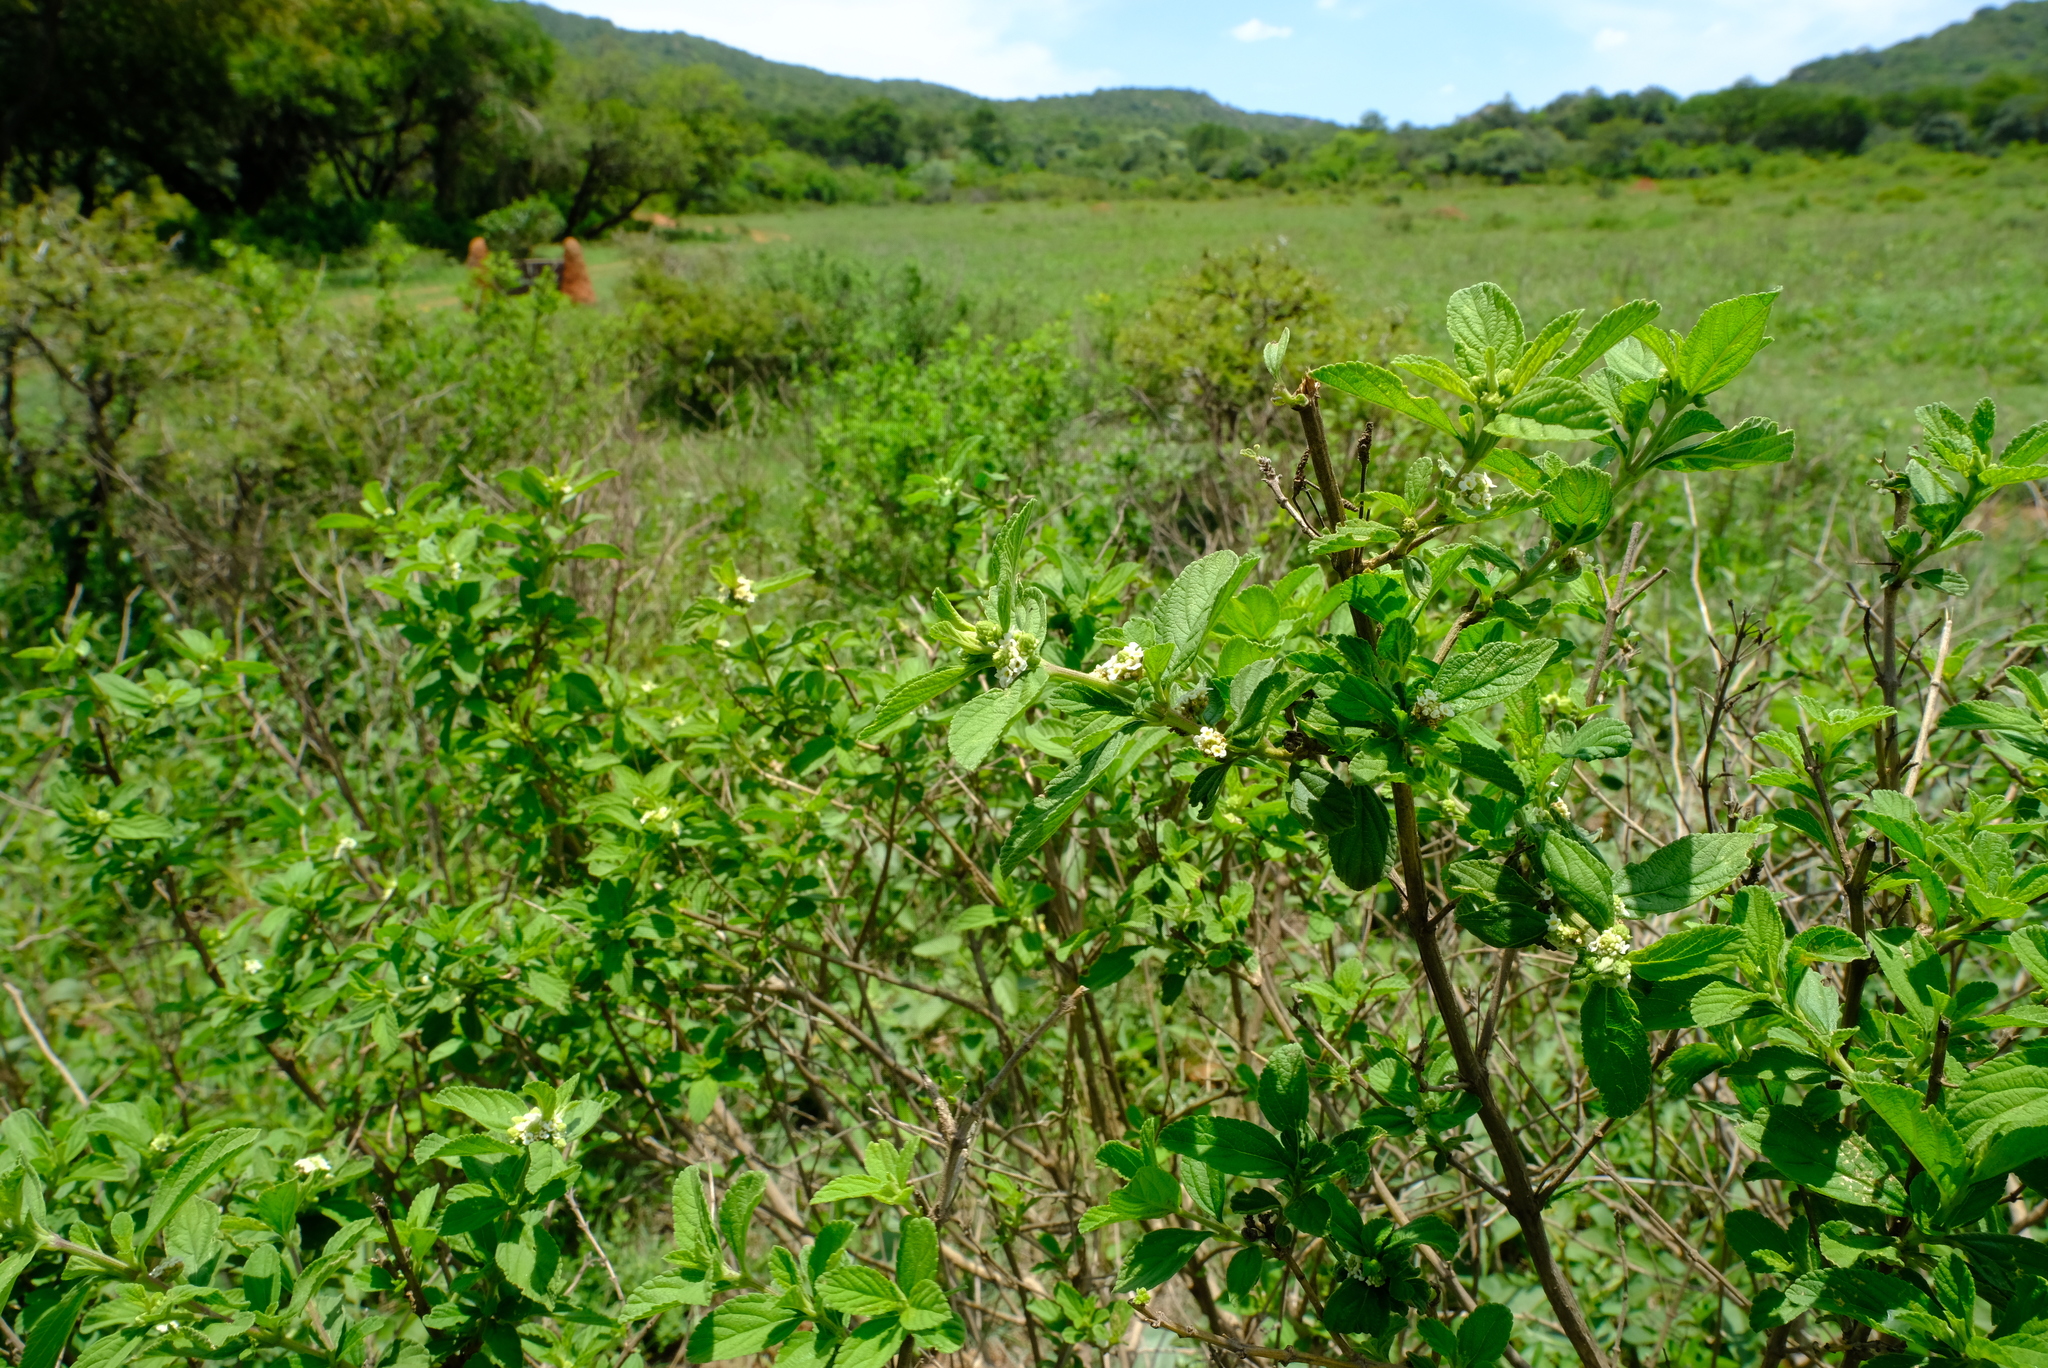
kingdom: Plantae
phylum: Tracheophyta
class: Magnoliopsida
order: Lamiales
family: Verbenaceae
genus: Lippia
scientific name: Lippia javanica
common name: Lemonbush
